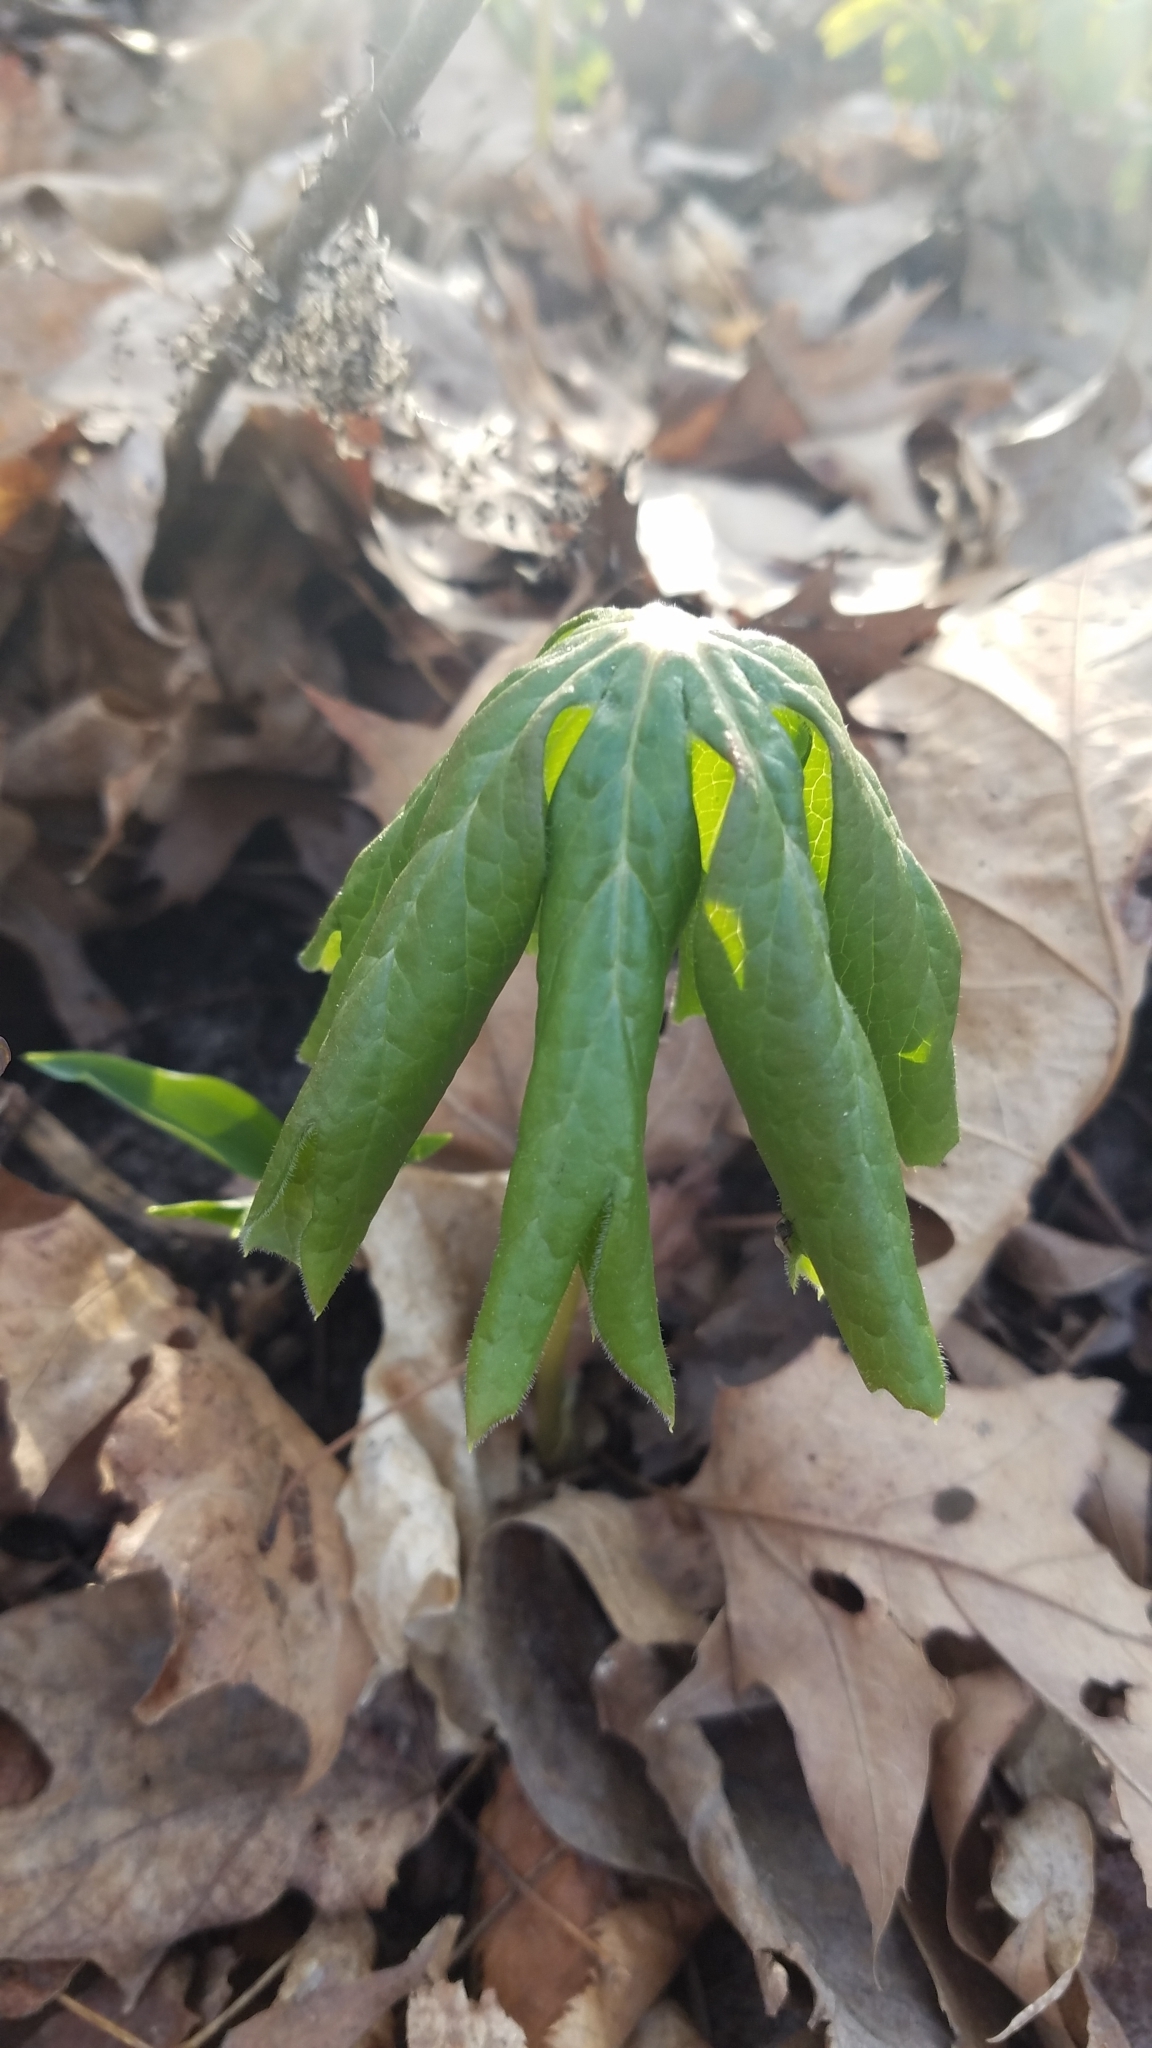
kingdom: Plantae
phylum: Tracheophyta
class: Magnoliopsida
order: Ranunculales
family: Berberidaceae
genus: Podophyllum
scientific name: Podophyllum peltatum
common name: Wild mandrake
